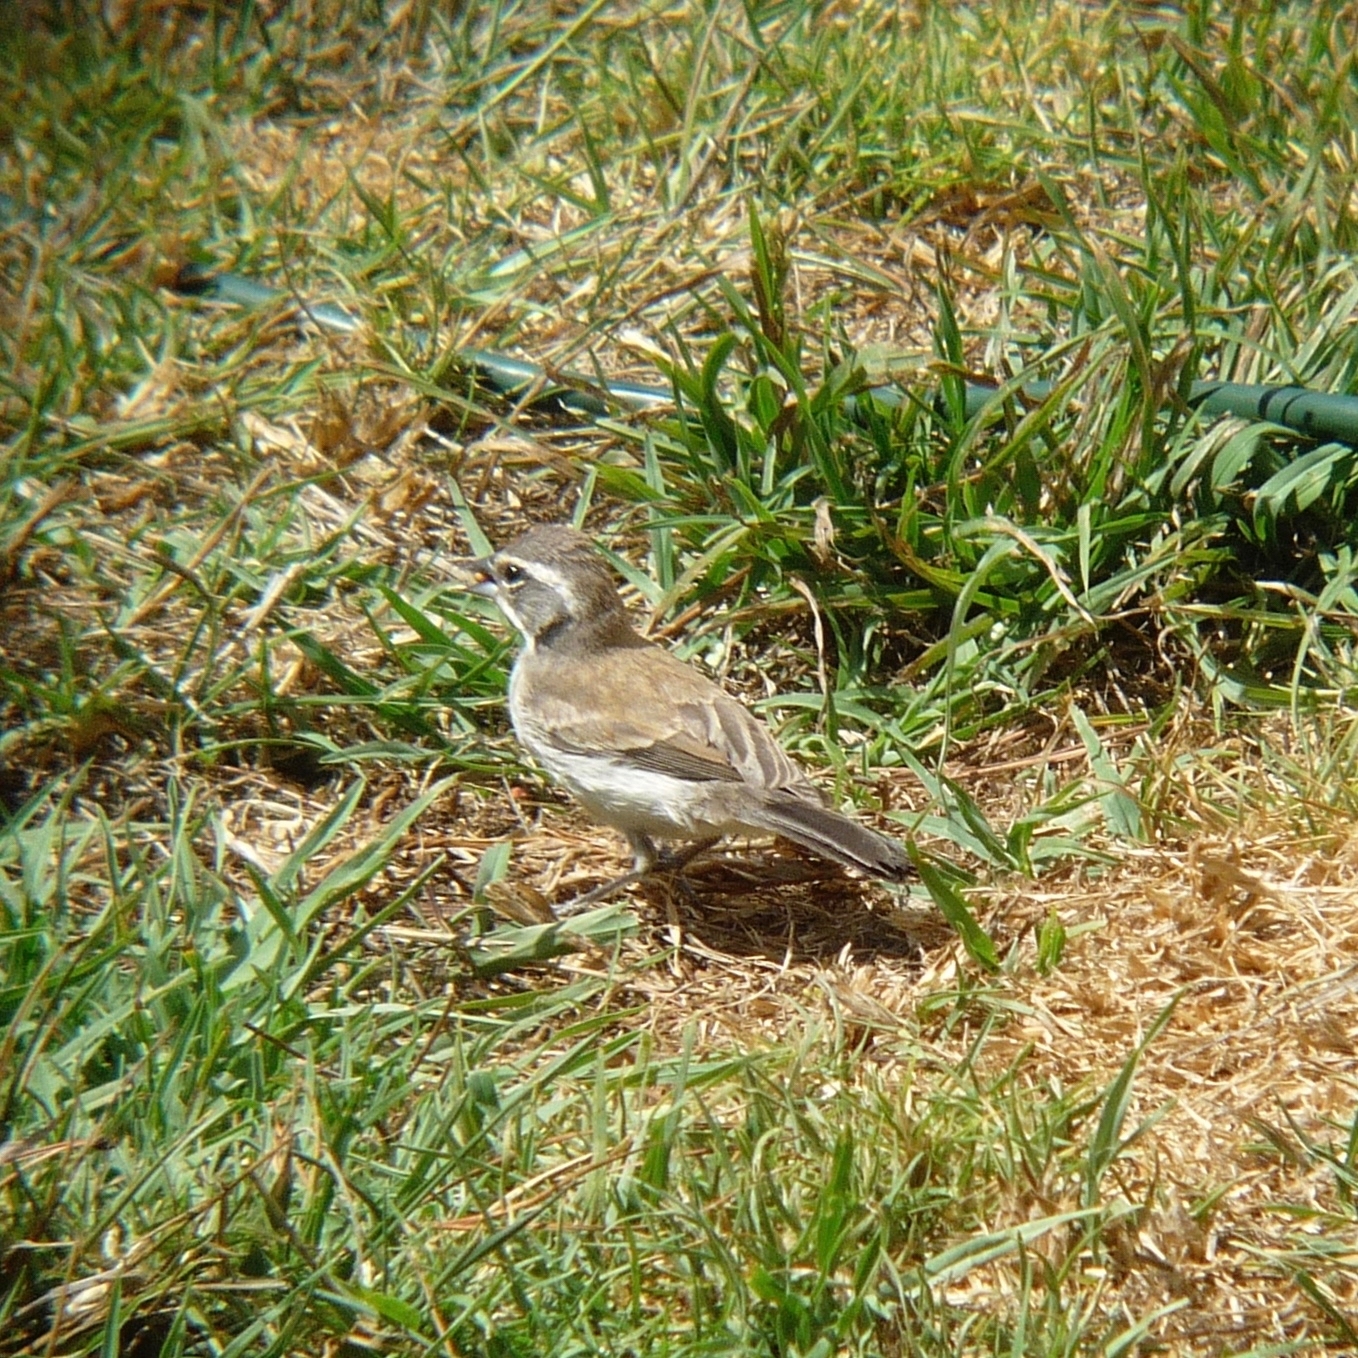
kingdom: Animalia
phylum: Chordata
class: Aves
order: Passeriformes
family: Passerellidae
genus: Amphispiza
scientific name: Amphispiza bilineata
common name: Black-throated sparrow
